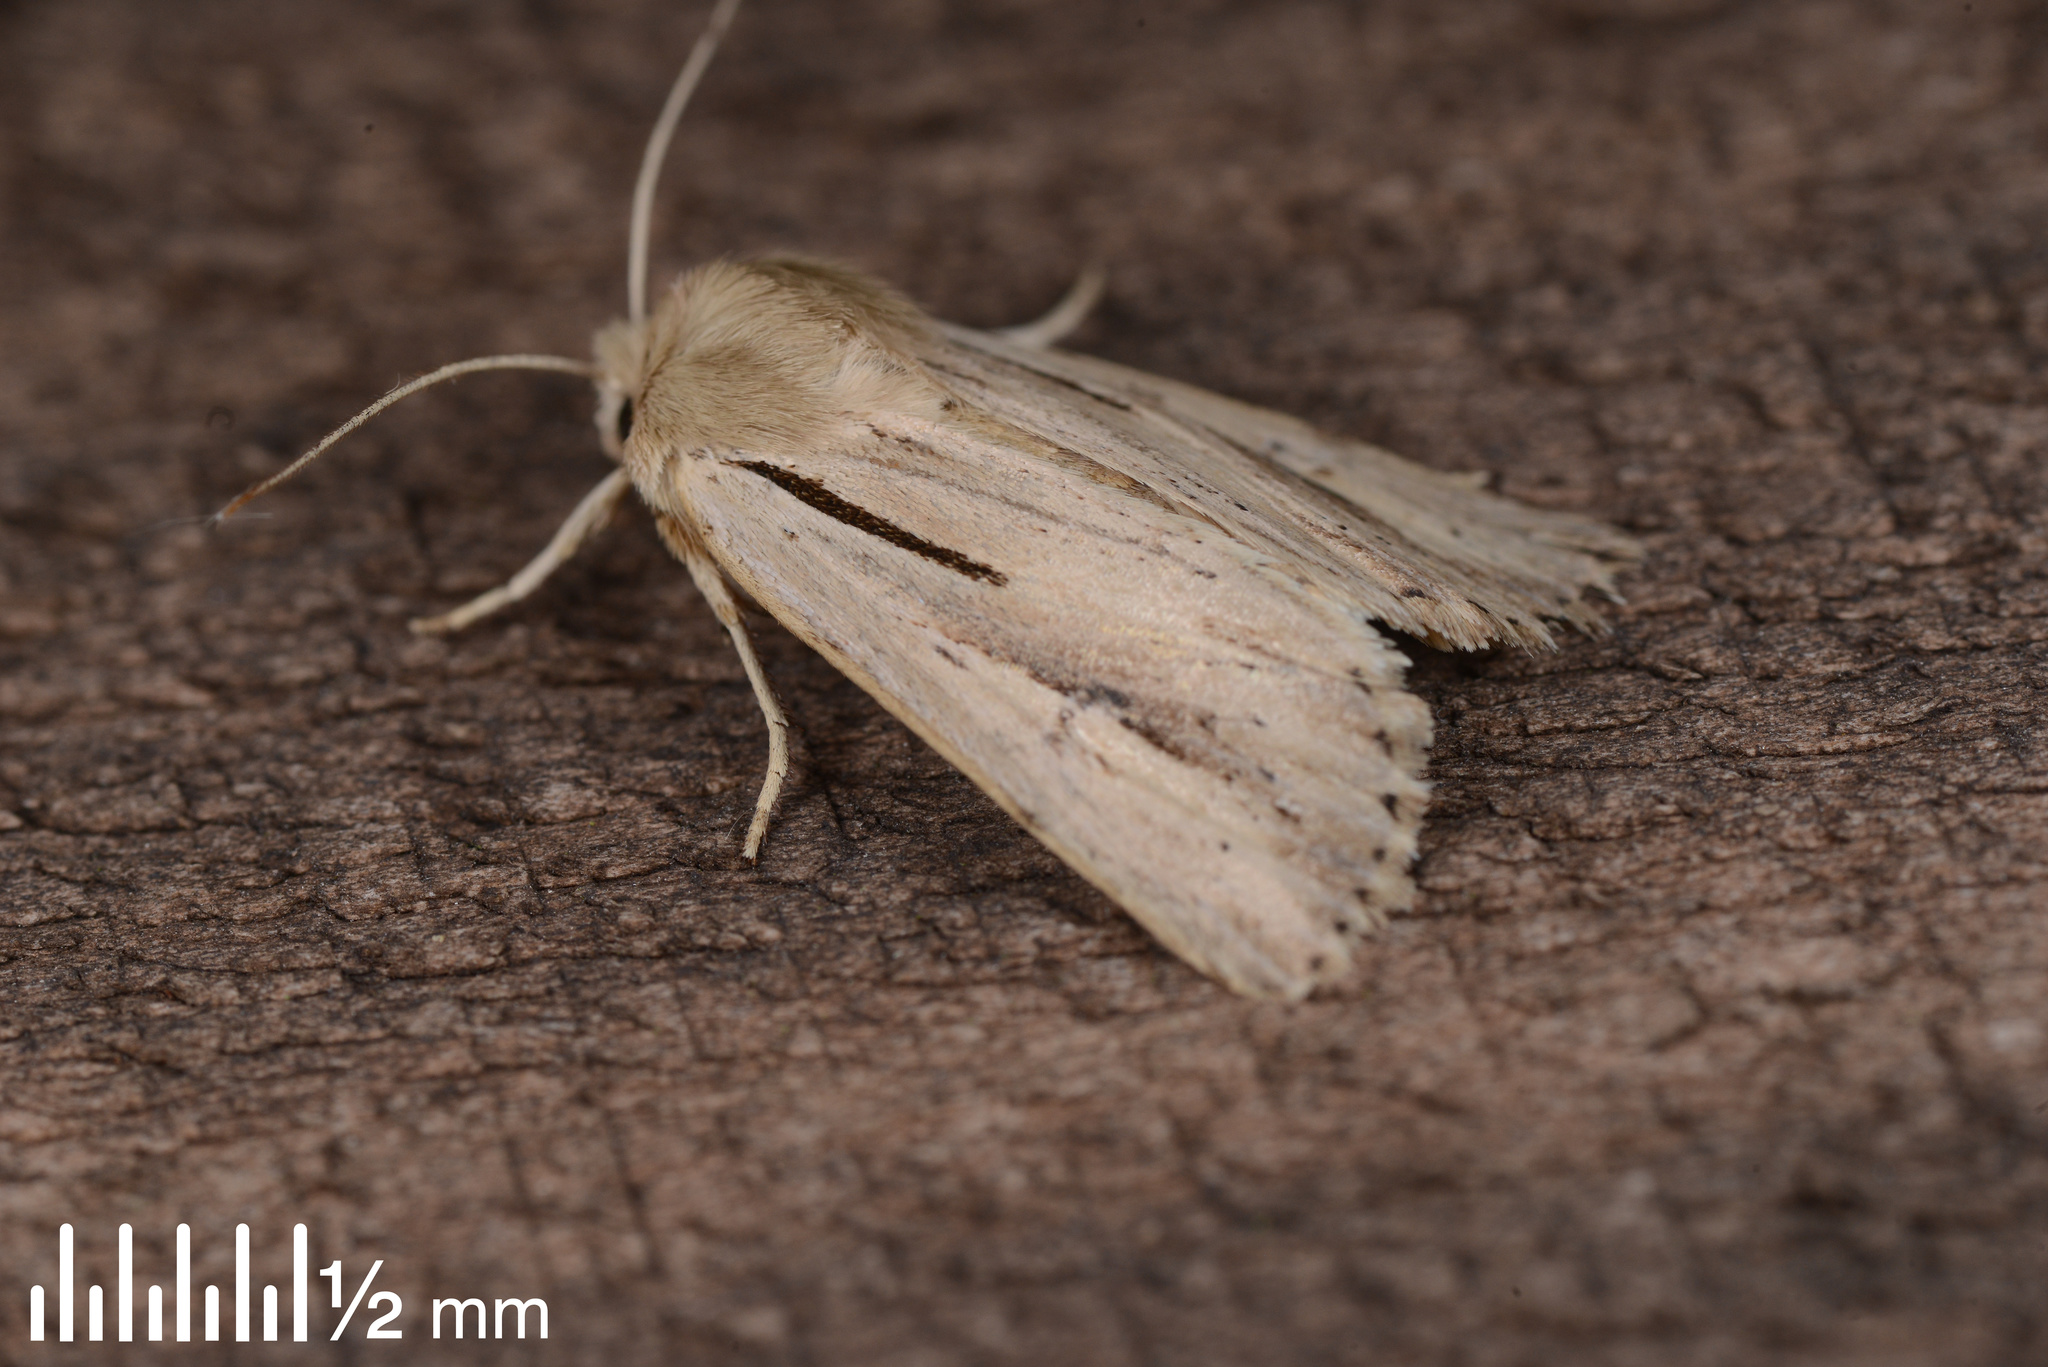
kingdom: Animalia
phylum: Arthropoda
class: Insecta
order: Lepidoptera
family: Noctuidae
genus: Ichneutica
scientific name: Ichneutica propria
